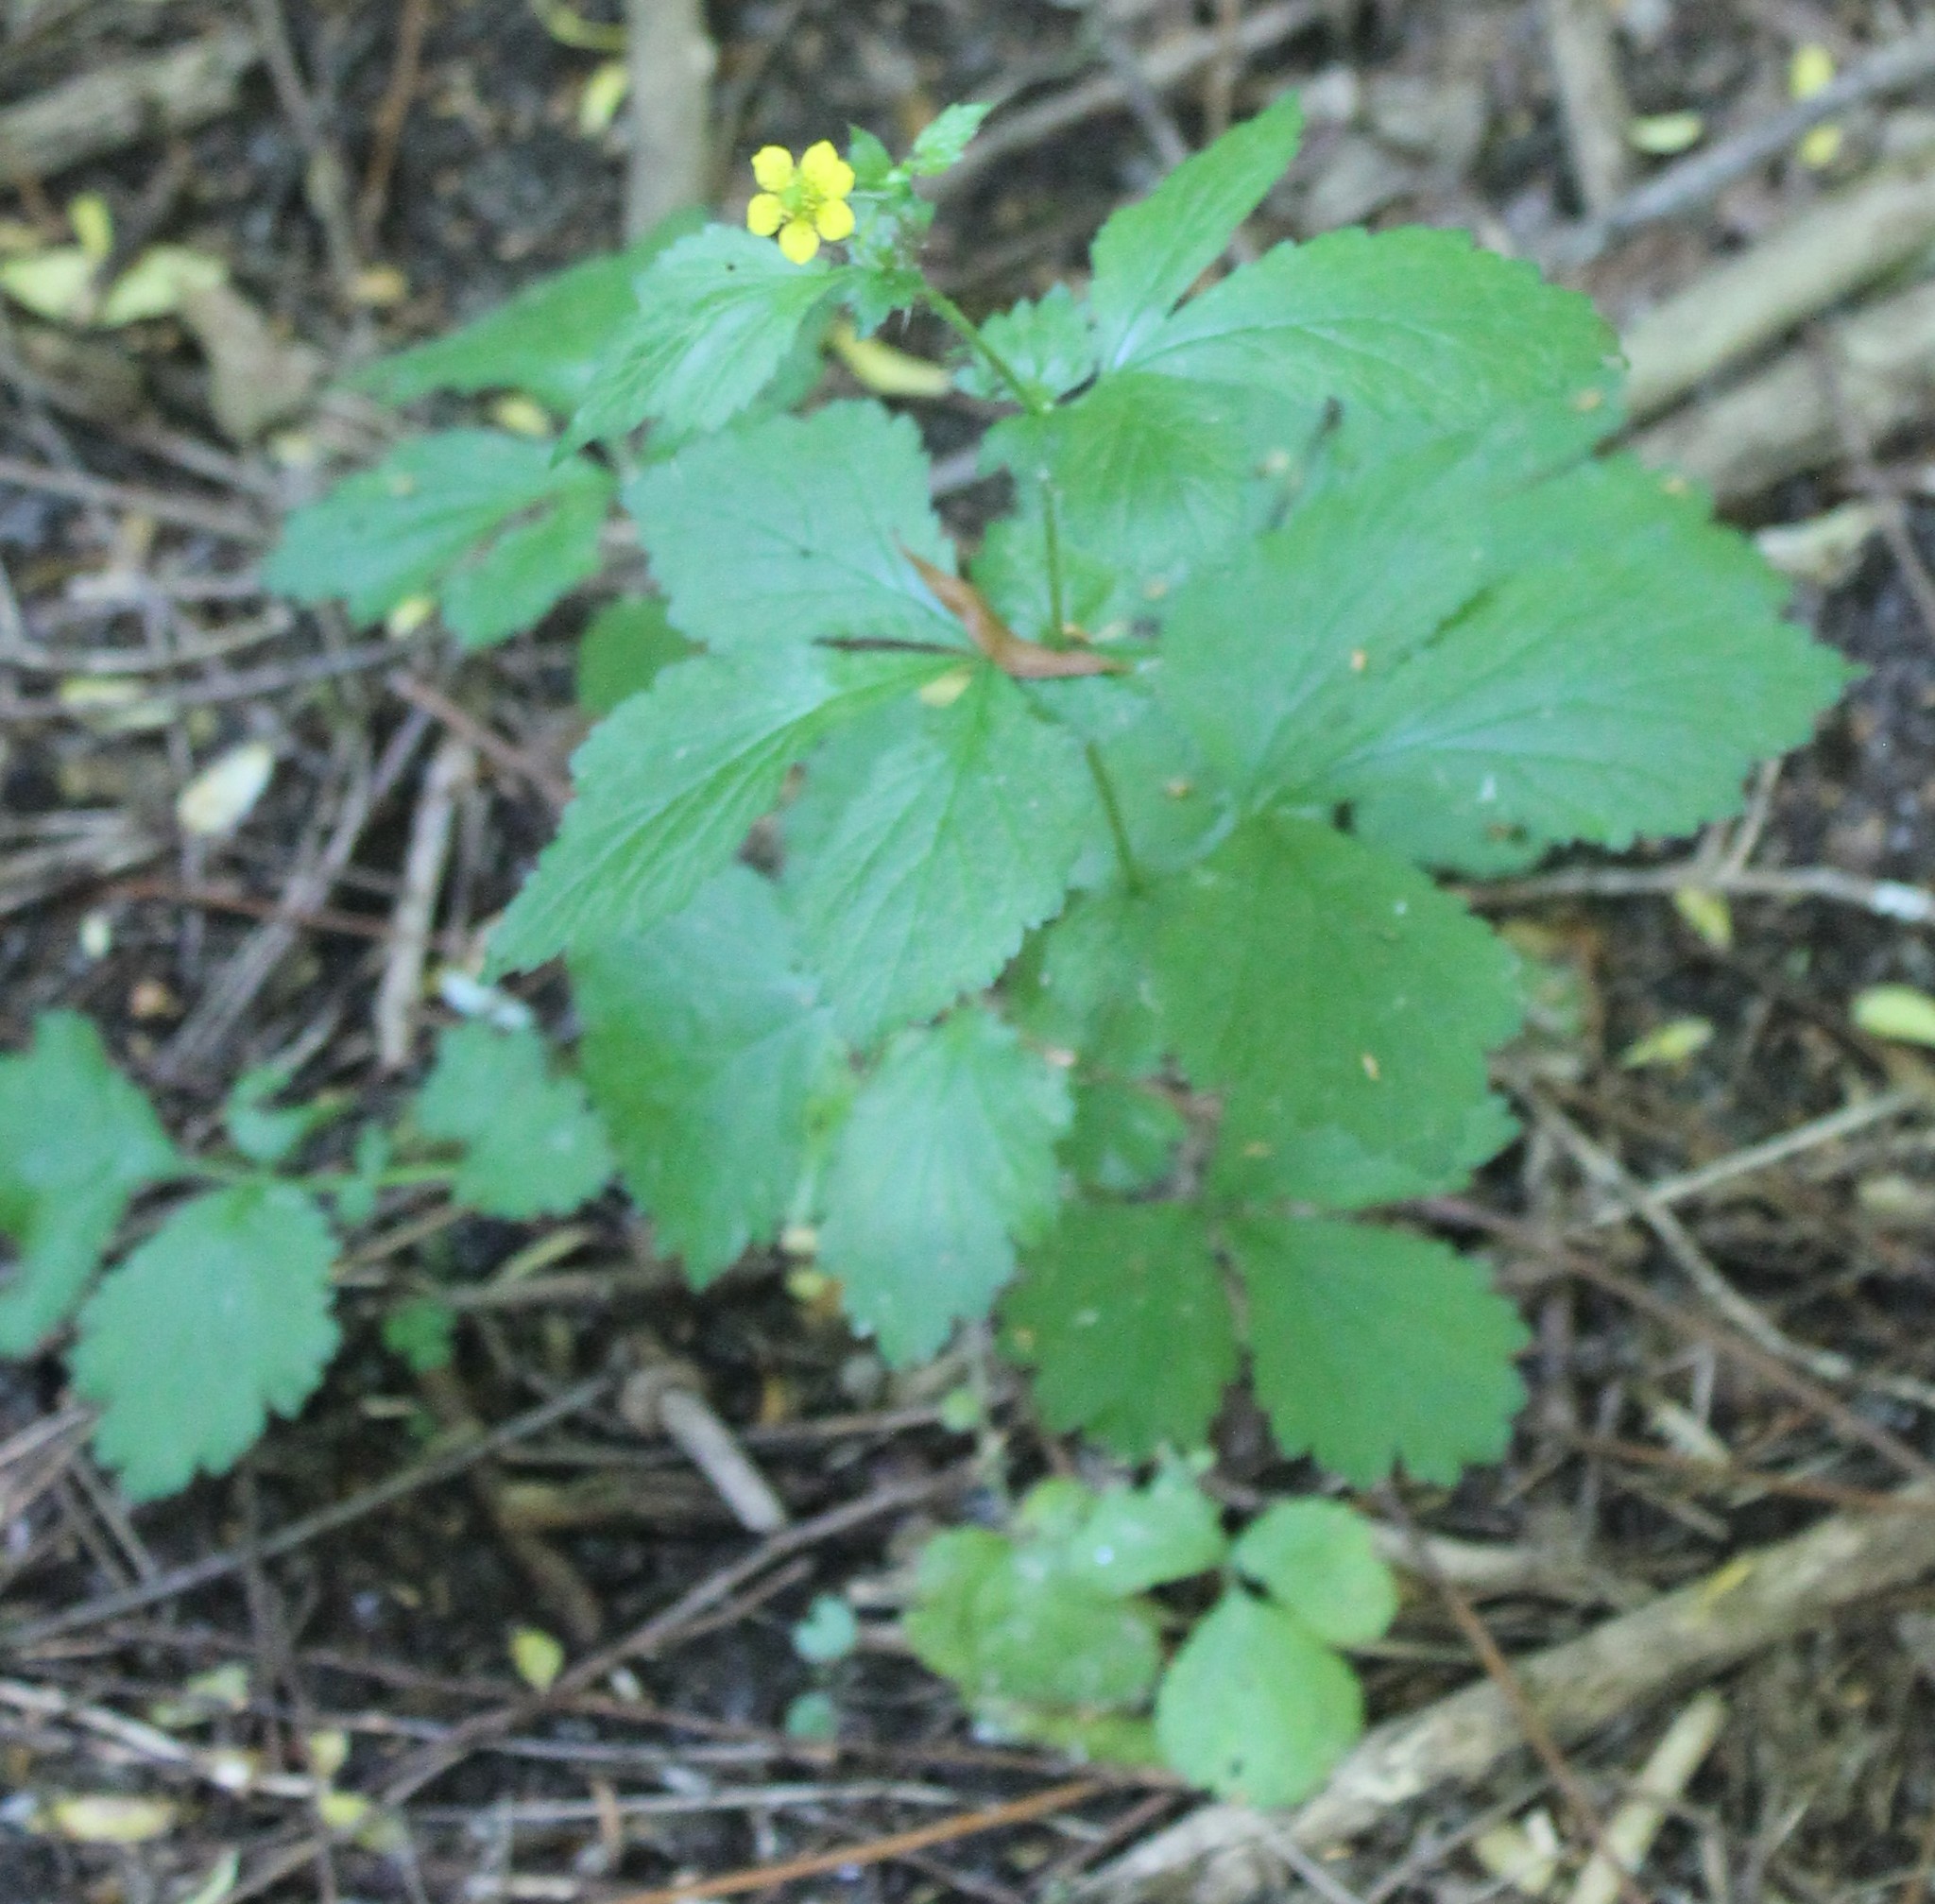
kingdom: Plantae
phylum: Tracheophyta
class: Magnoliopsida
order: Rosales
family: Rosaceae
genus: Geum
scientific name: Geum urbanum
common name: Wood avens
